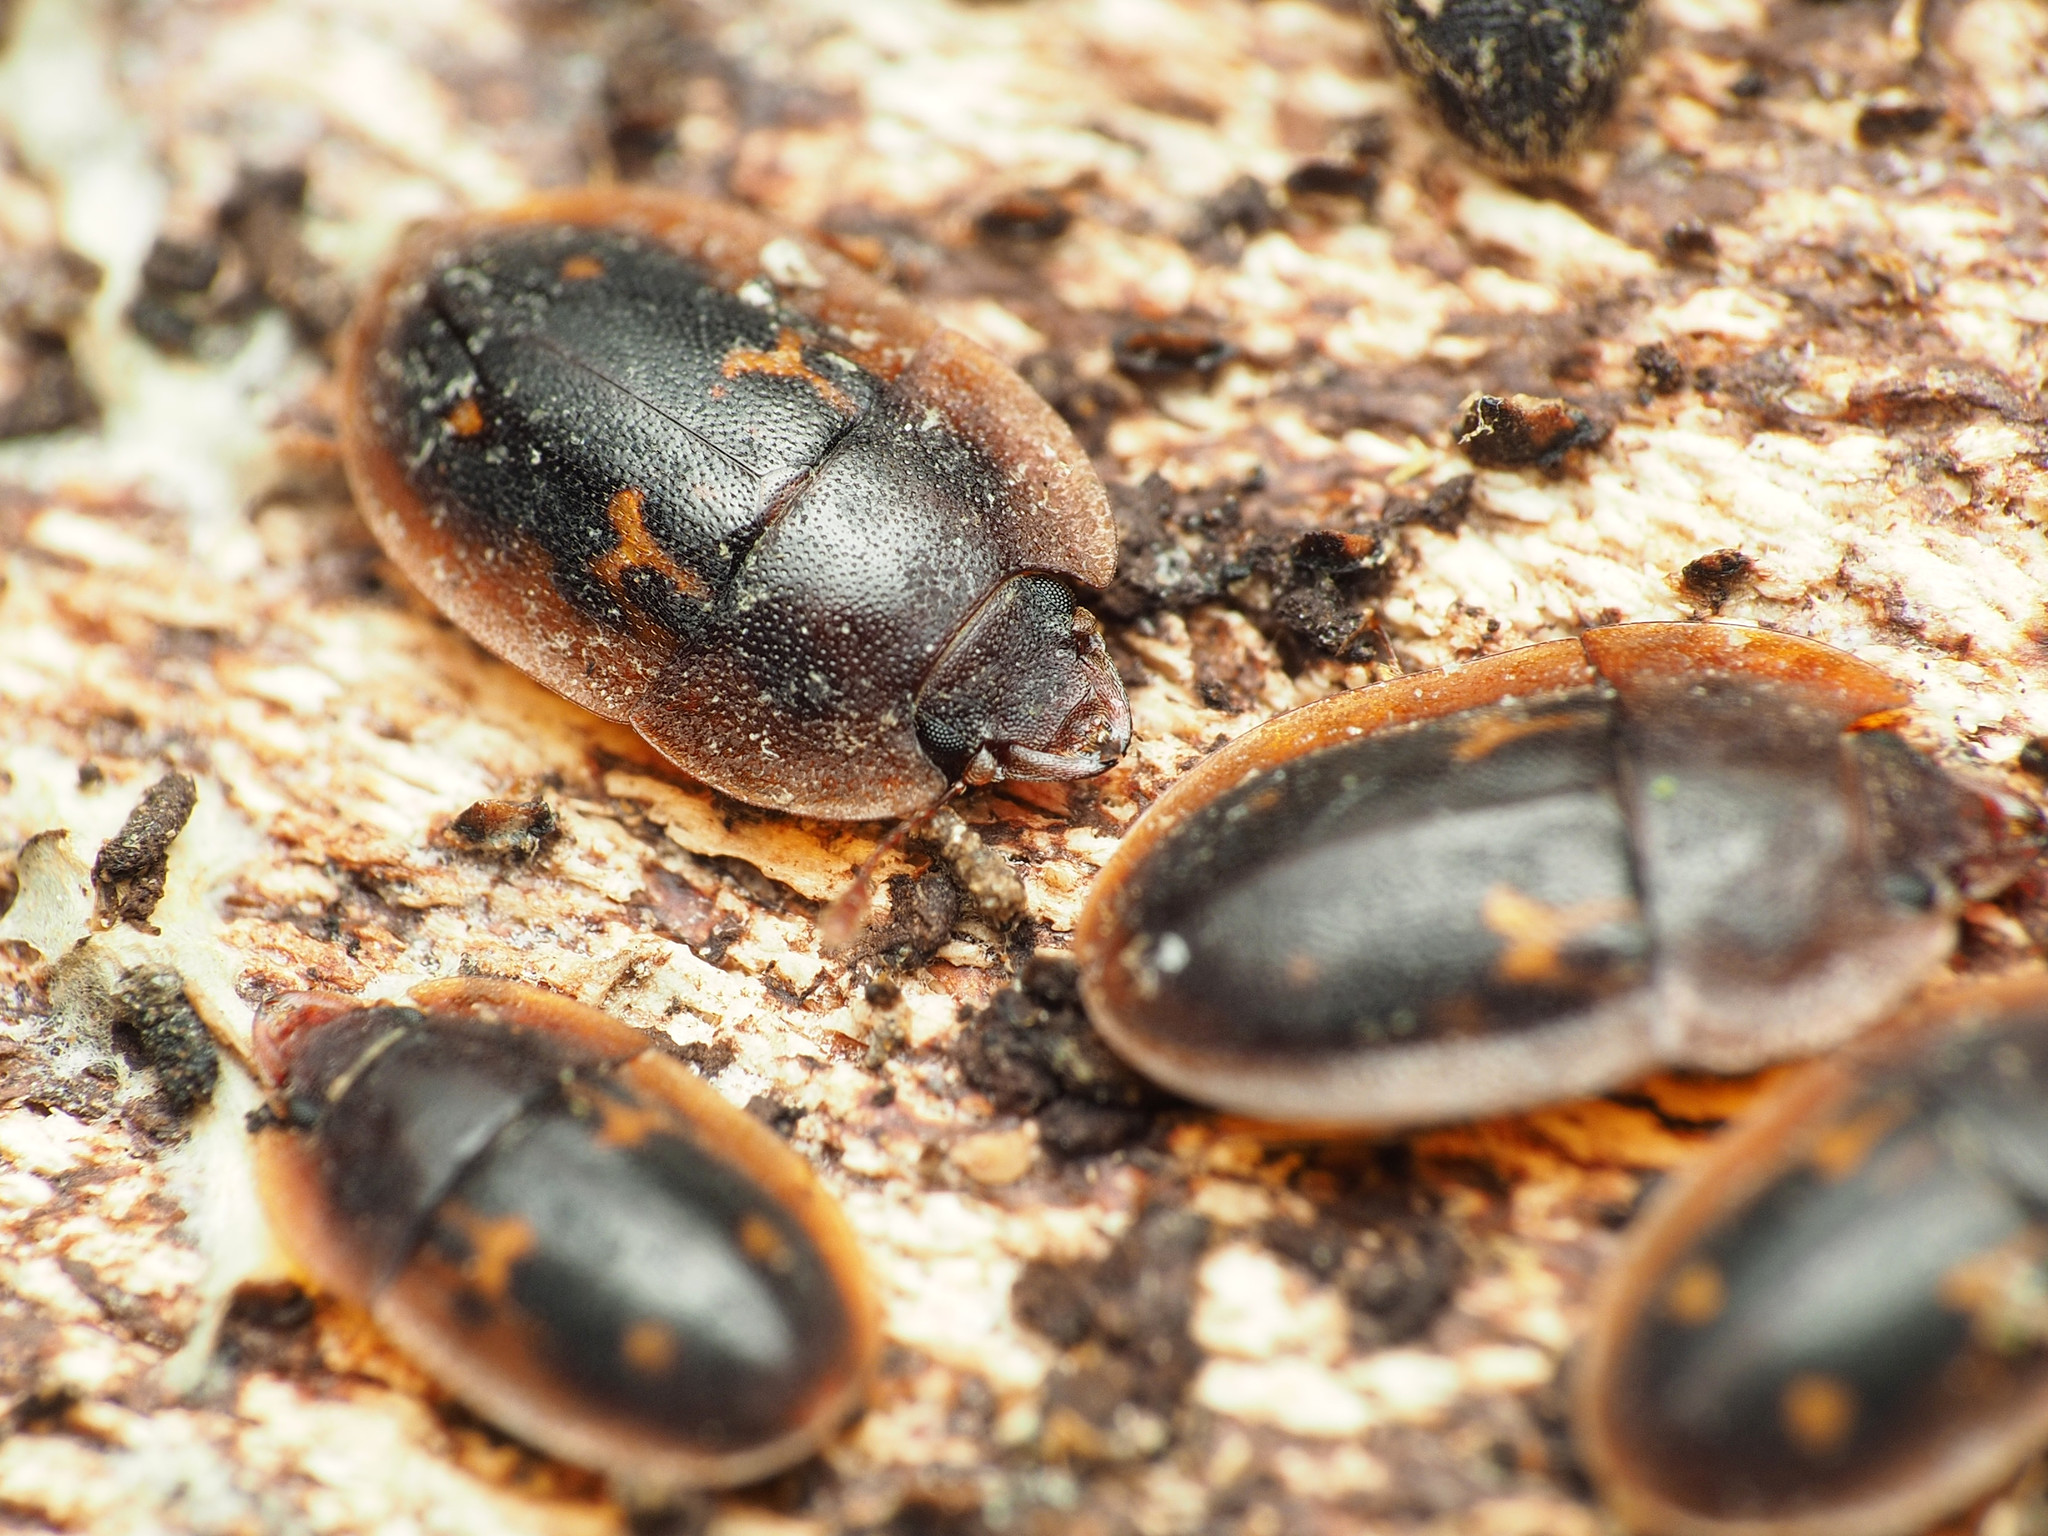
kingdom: Animalia
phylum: Arthropoda
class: Insecta
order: Coleoptera
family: Nitidulidae
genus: Prometopia
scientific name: Prometopia sexmaculata
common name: Six-spotted sap-feeding beetle
